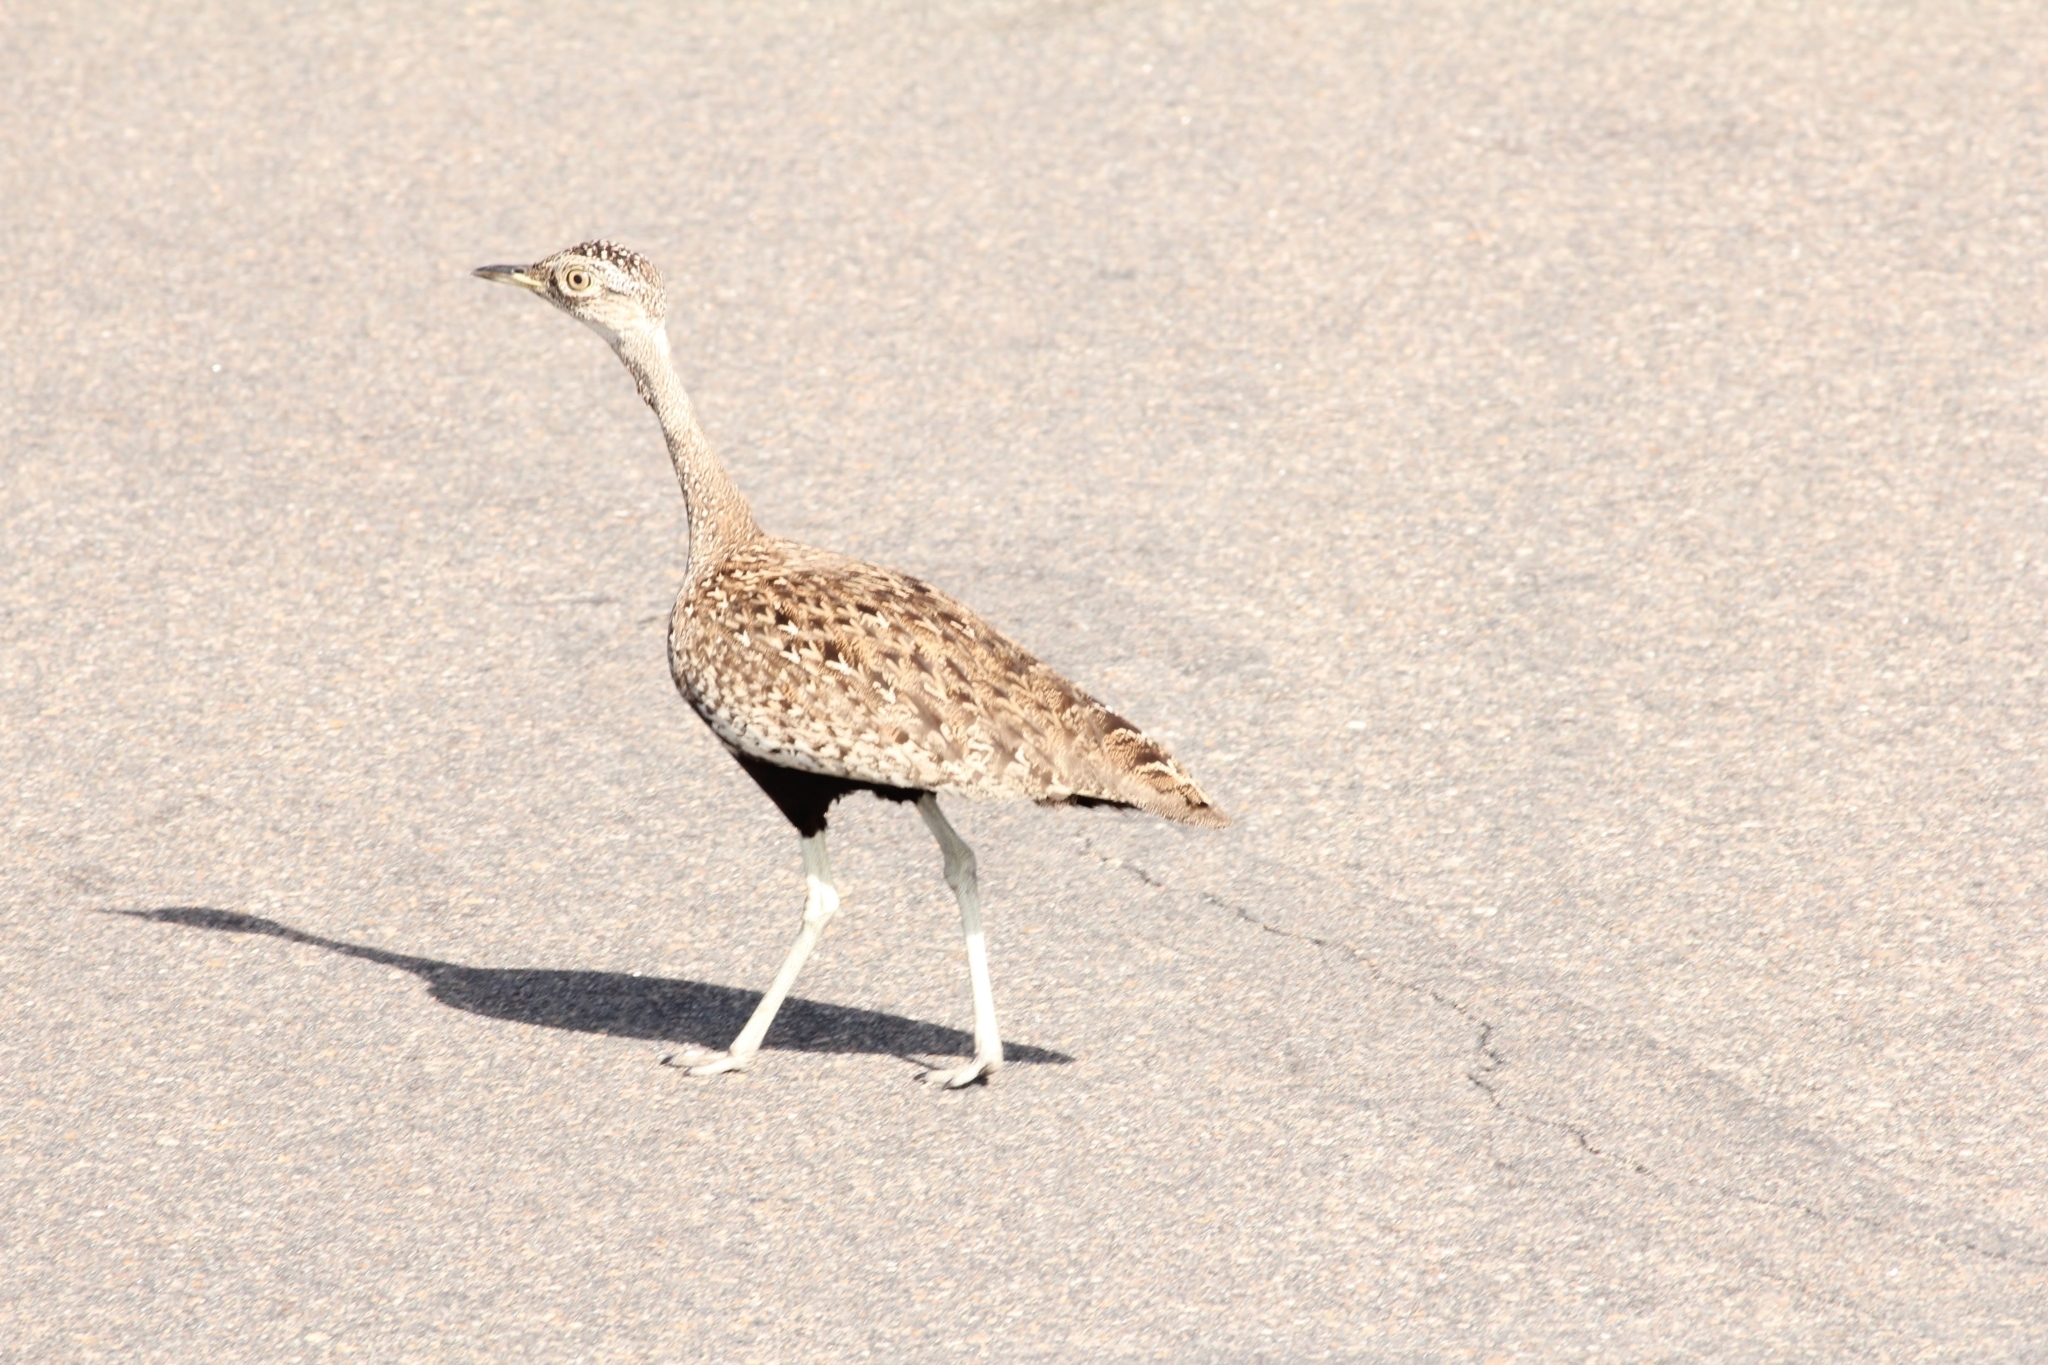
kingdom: Animalia
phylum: Chordata
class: Aves
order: Otidiformes
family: Otididae
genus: Lissotis
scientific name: Lissotis melanogaster
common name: Black-bellied bustard
